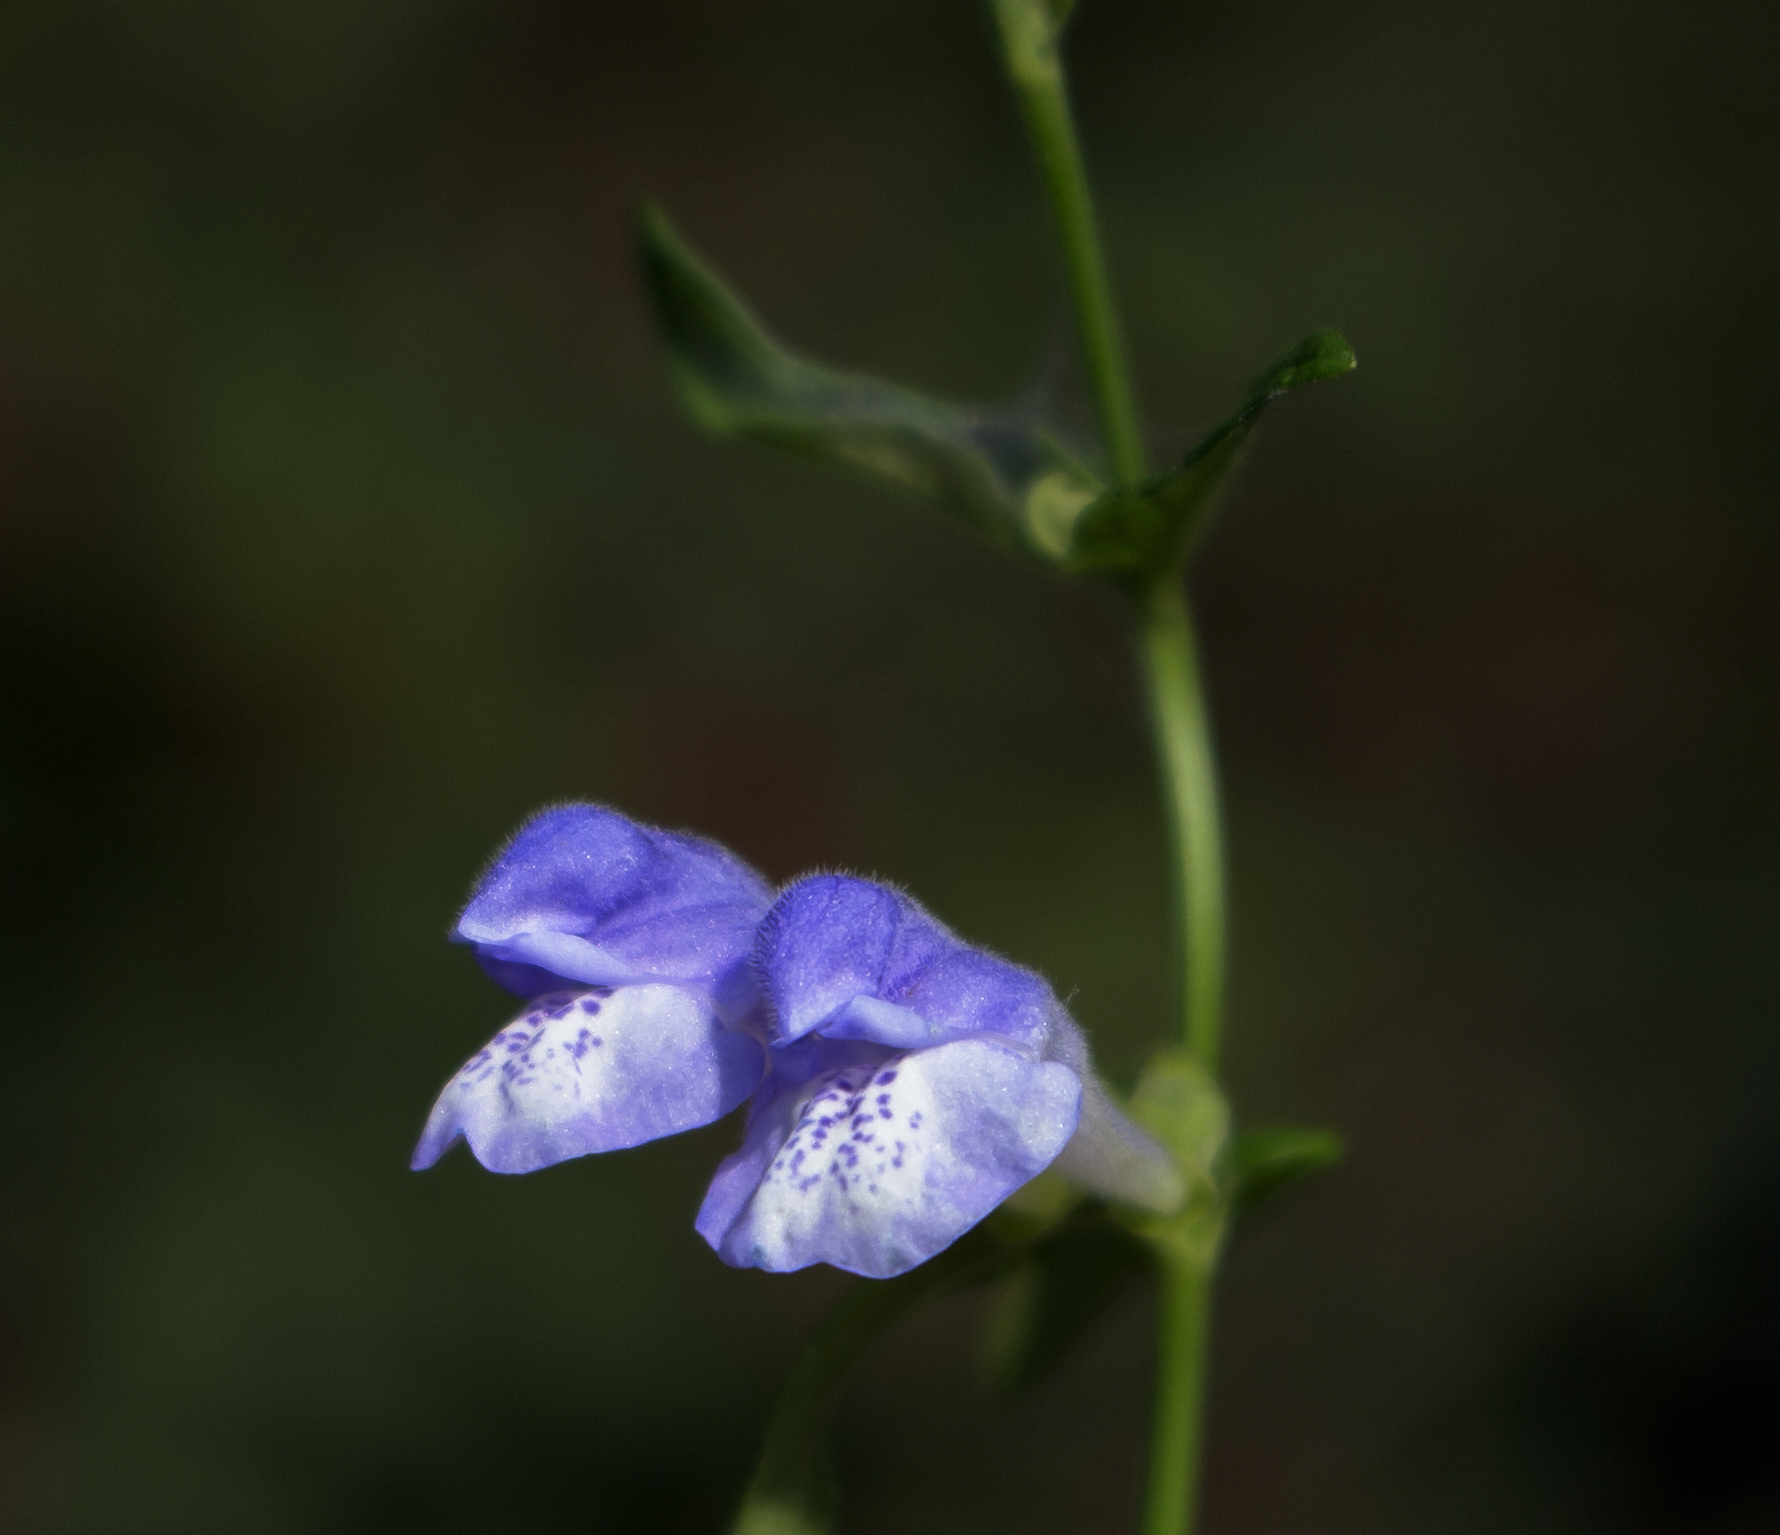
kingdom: Plantae
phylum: Tracheophyta
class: Magnoliopsida
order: Lamiales
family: Lamiaceae
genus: Scutellaria
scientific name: Scutellaria galericulata
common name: Skullcap
